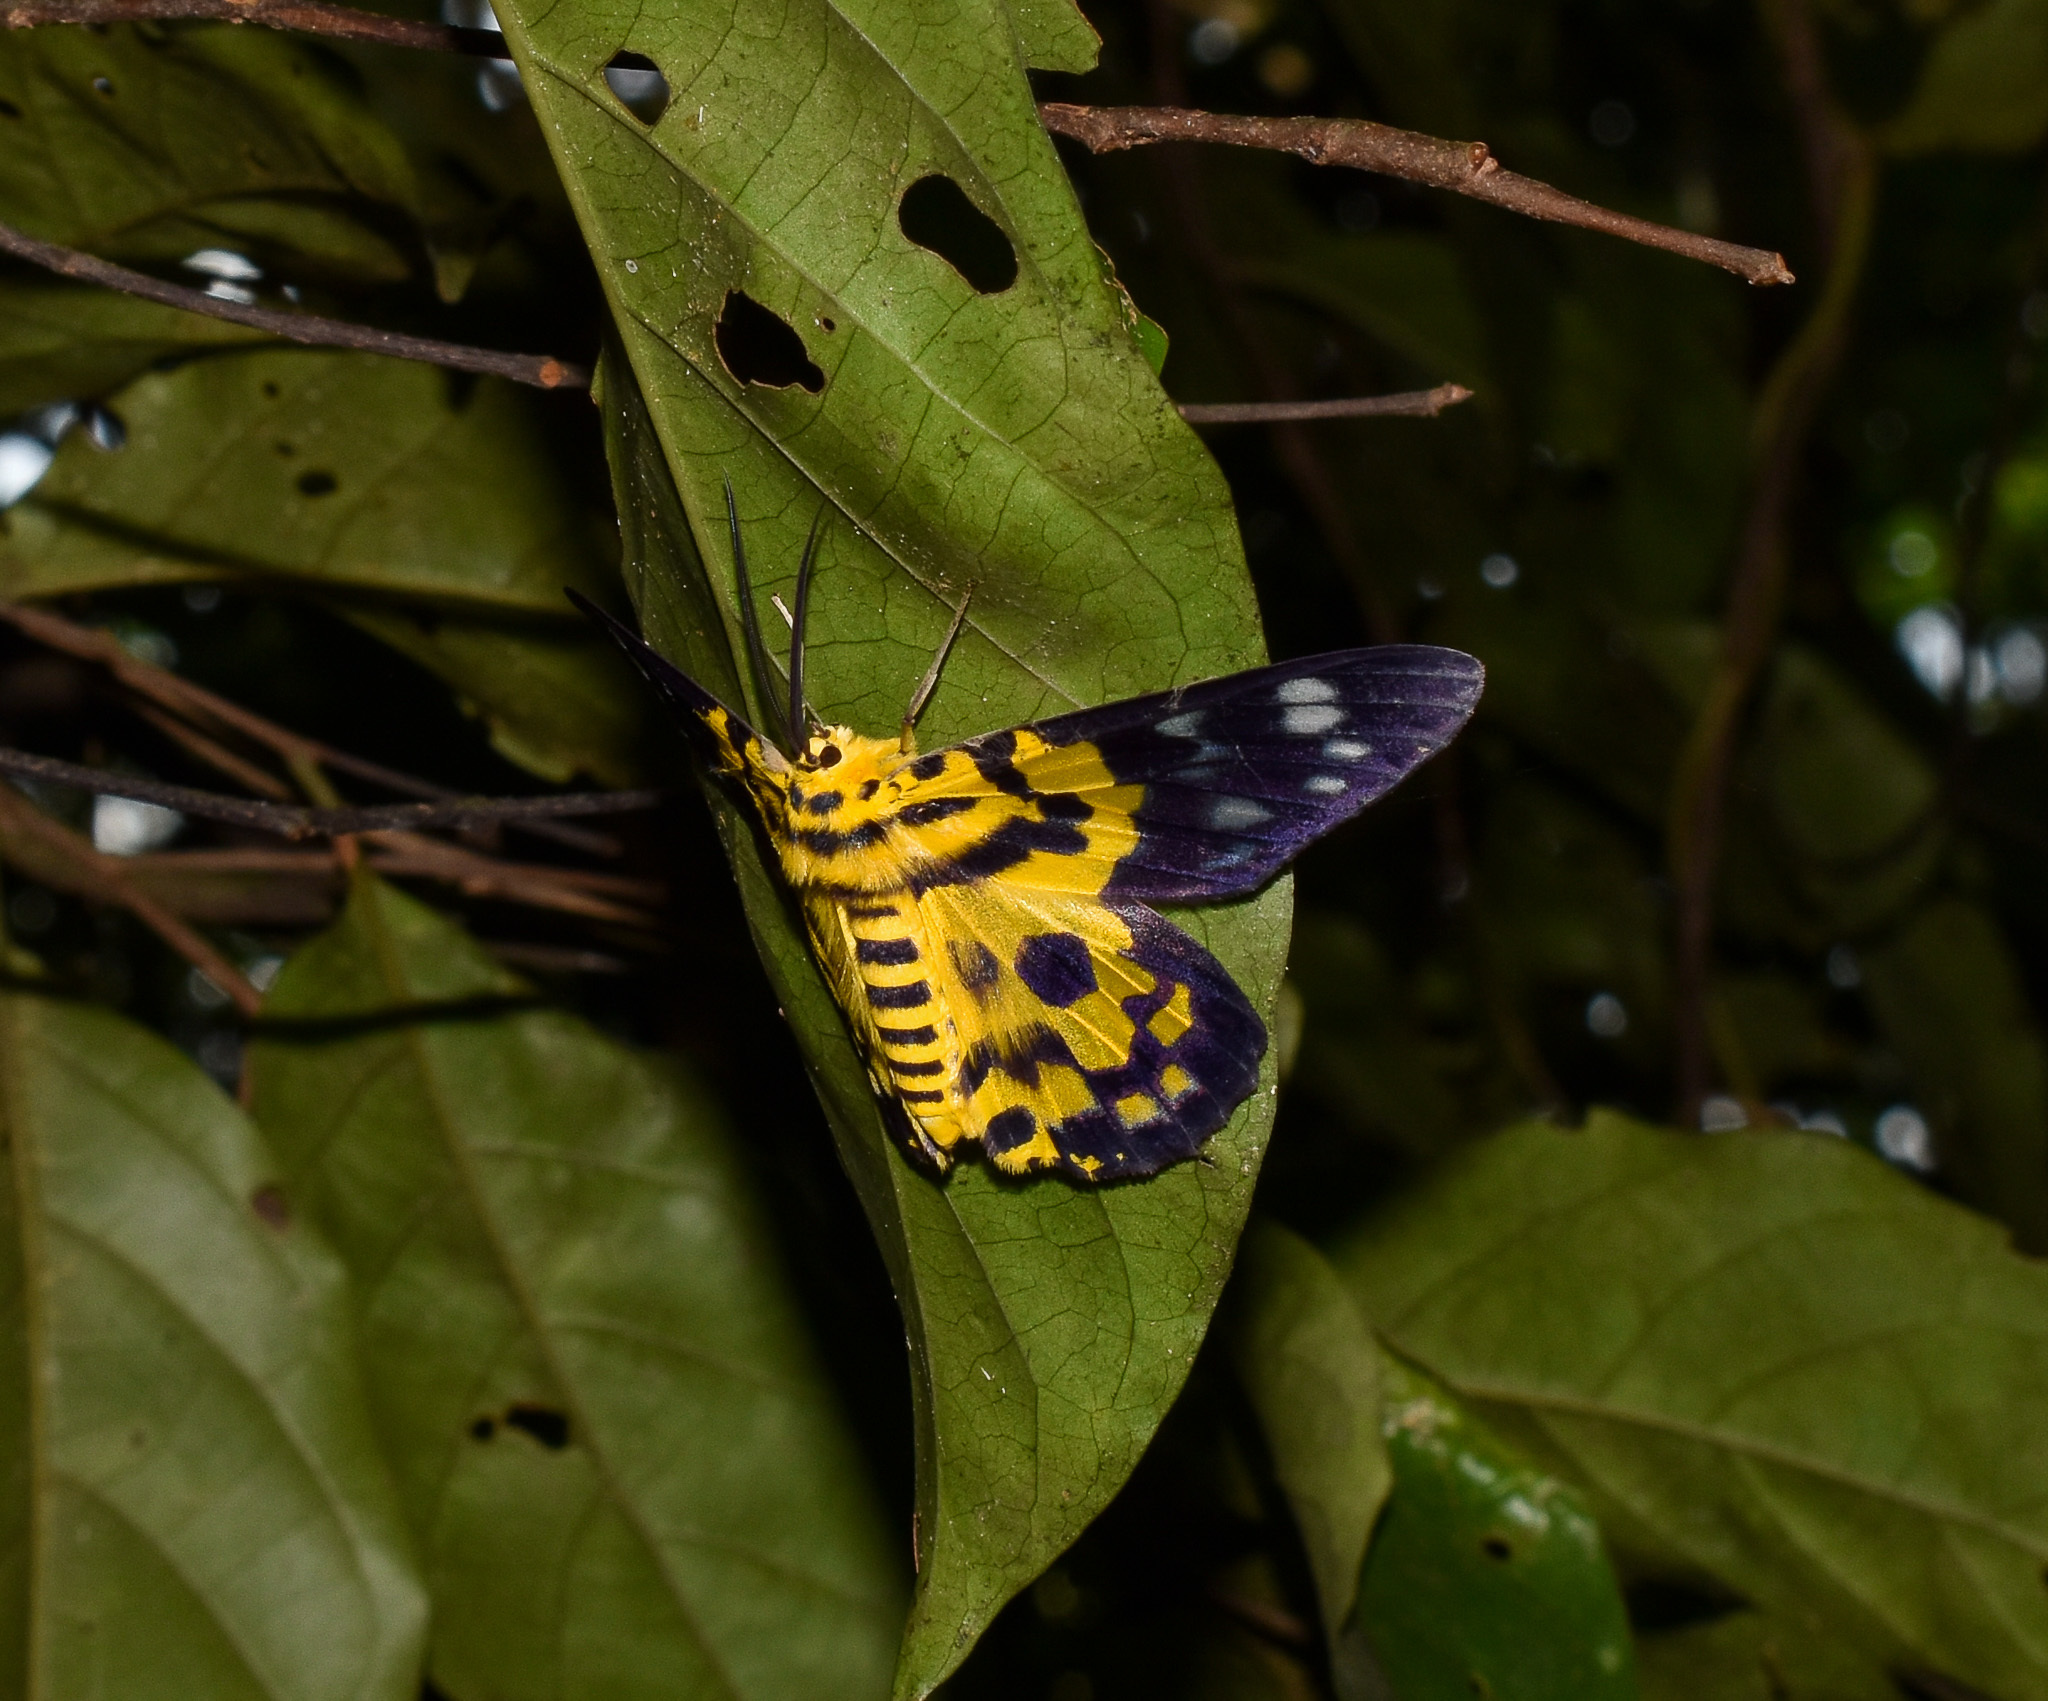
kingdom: Animalia
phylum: Arthropoda
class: Insecta
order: Lepidoptera
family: Geometridae
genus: Dysphania
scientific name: Dysphania militaris
